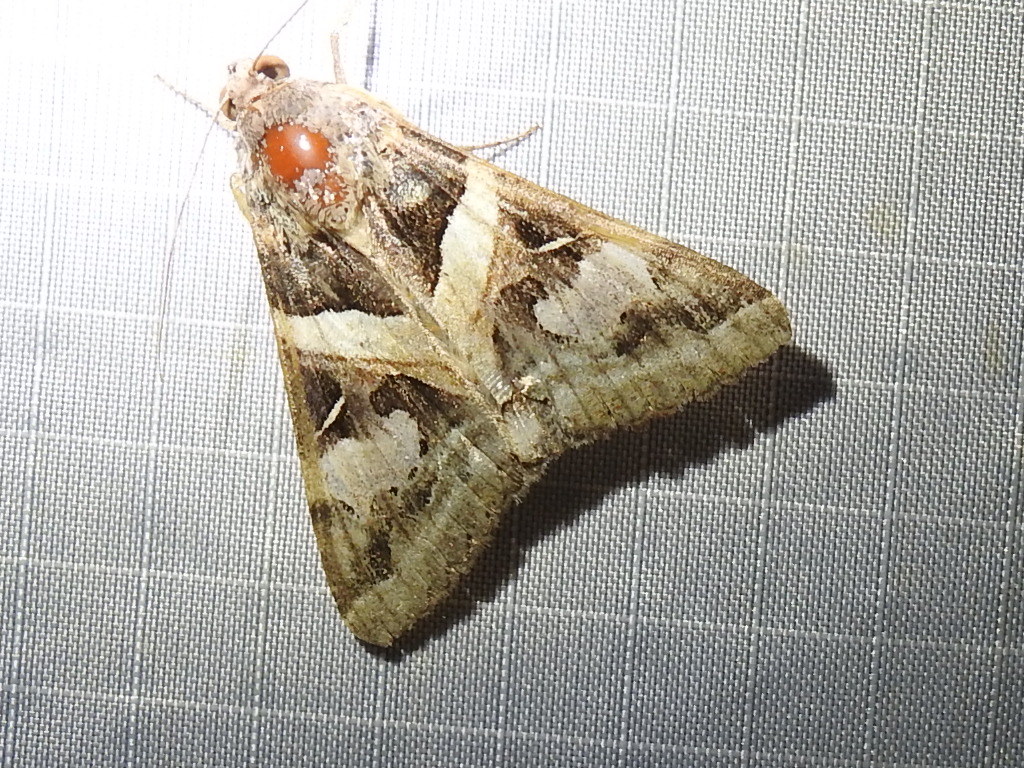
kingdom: Animalia
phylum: Arthropoda
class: Insecta
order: Lepidoptera
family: Erebidae
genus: Melipotis
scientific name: Melipotis indomita
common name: Moth
